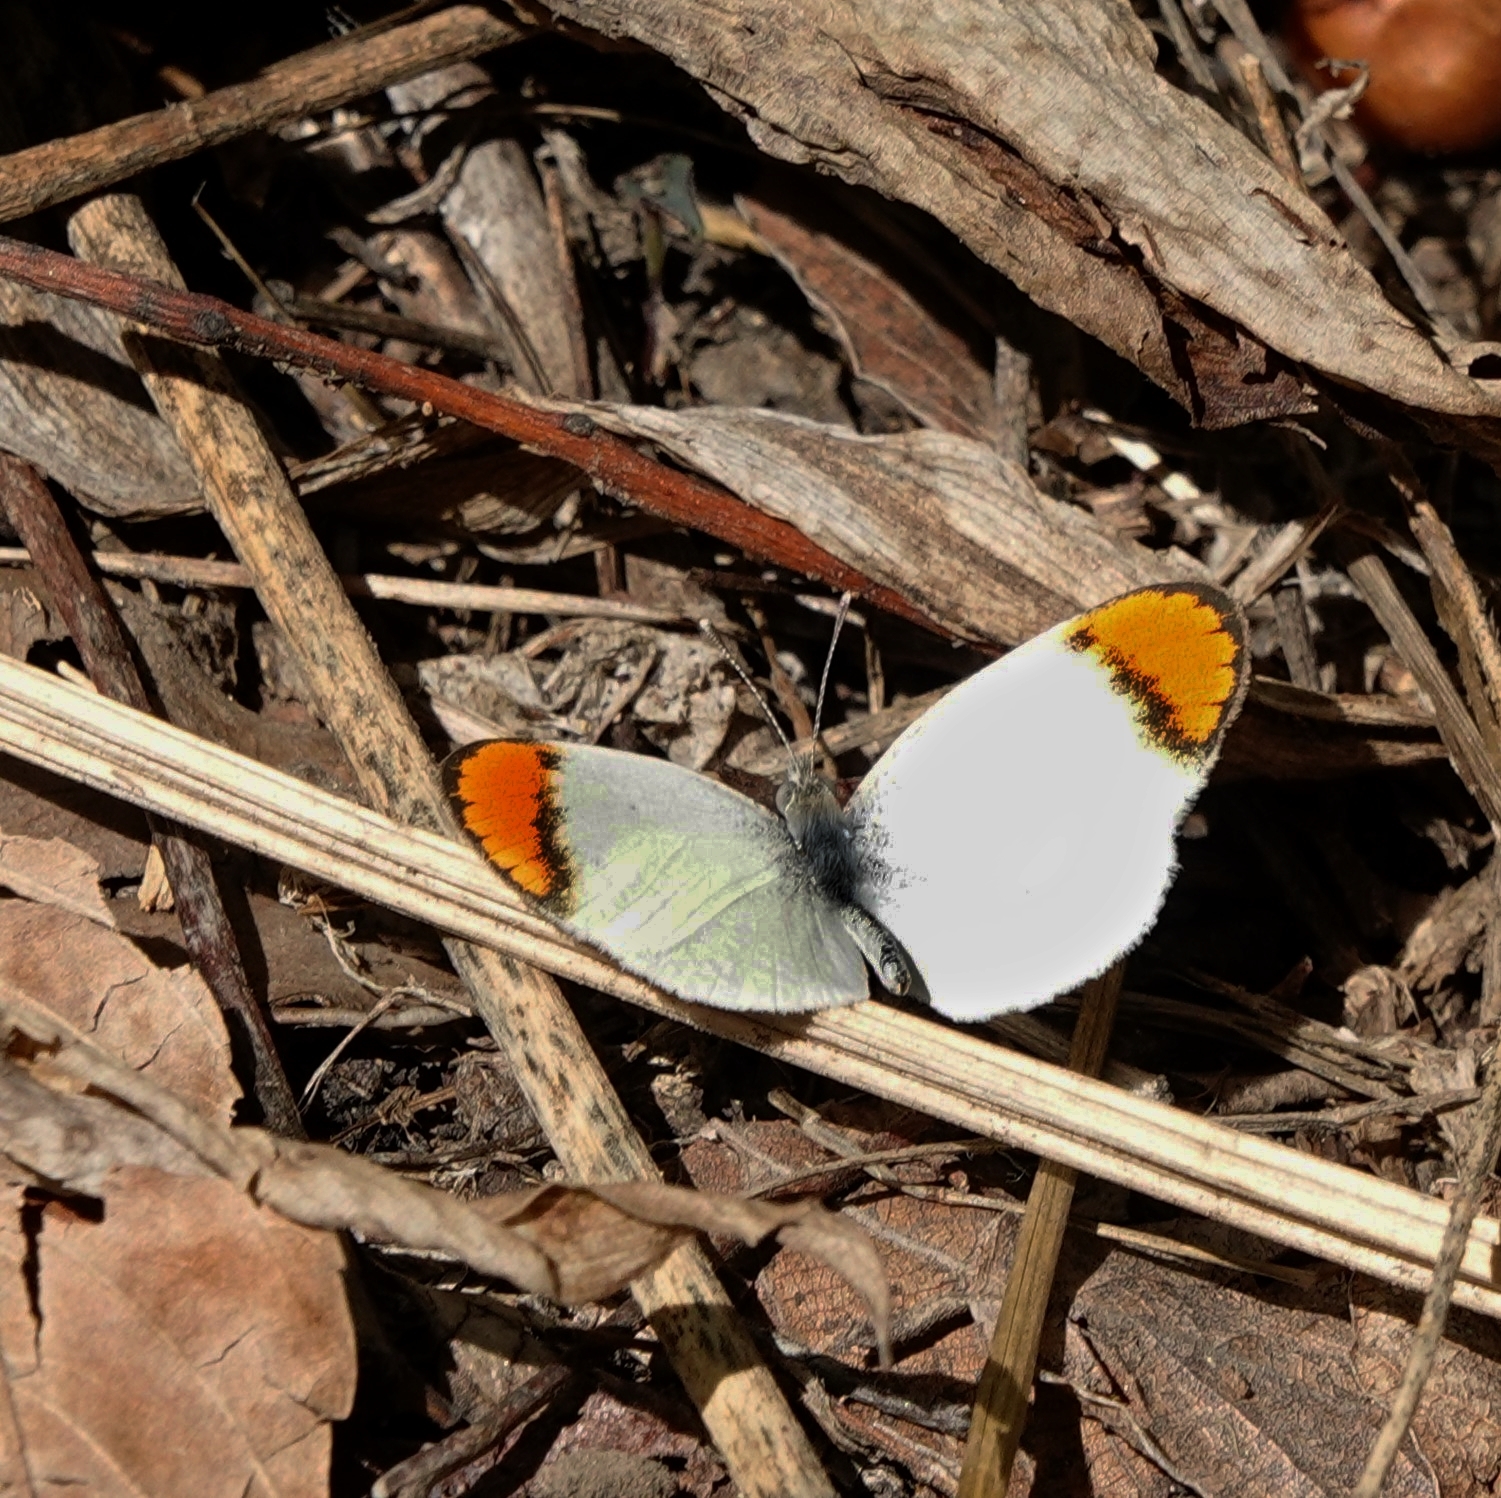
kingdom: Animalia
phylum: Arthropoda
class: Insecta
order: Lepidoptera
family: Pieridae
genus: Colotis
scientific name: Colotis evanthe
